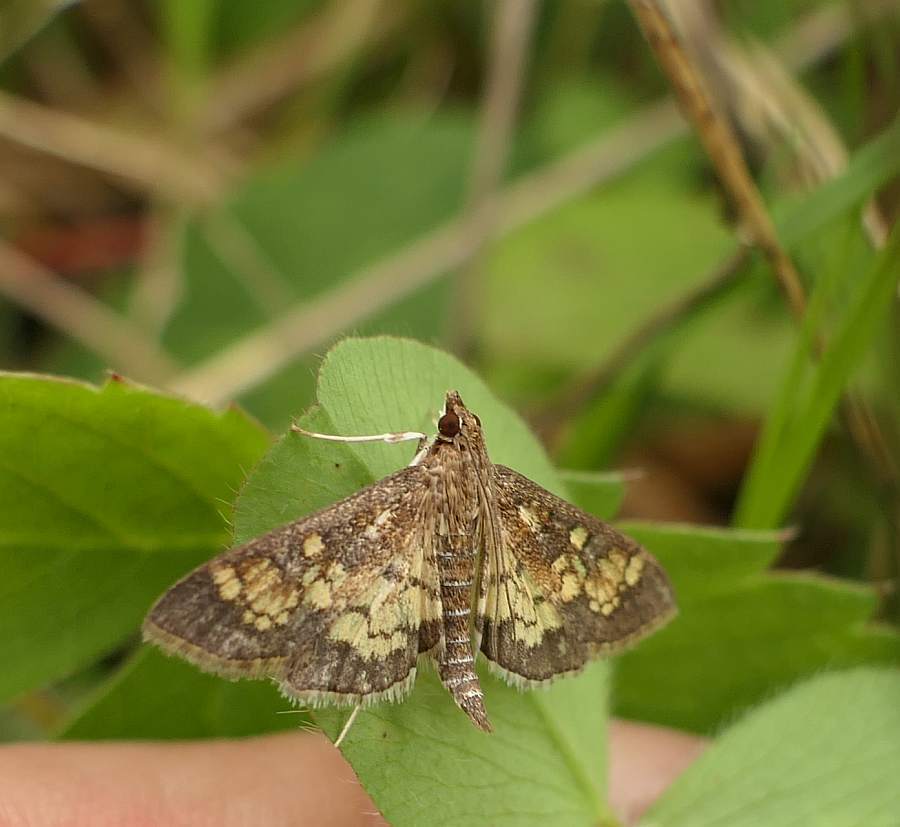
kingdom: Animalia
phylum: Arthropoda
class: Insecta
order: Lepidoptera
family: Crambidae
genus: Epipagis
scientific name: Epipagis adipaloides
